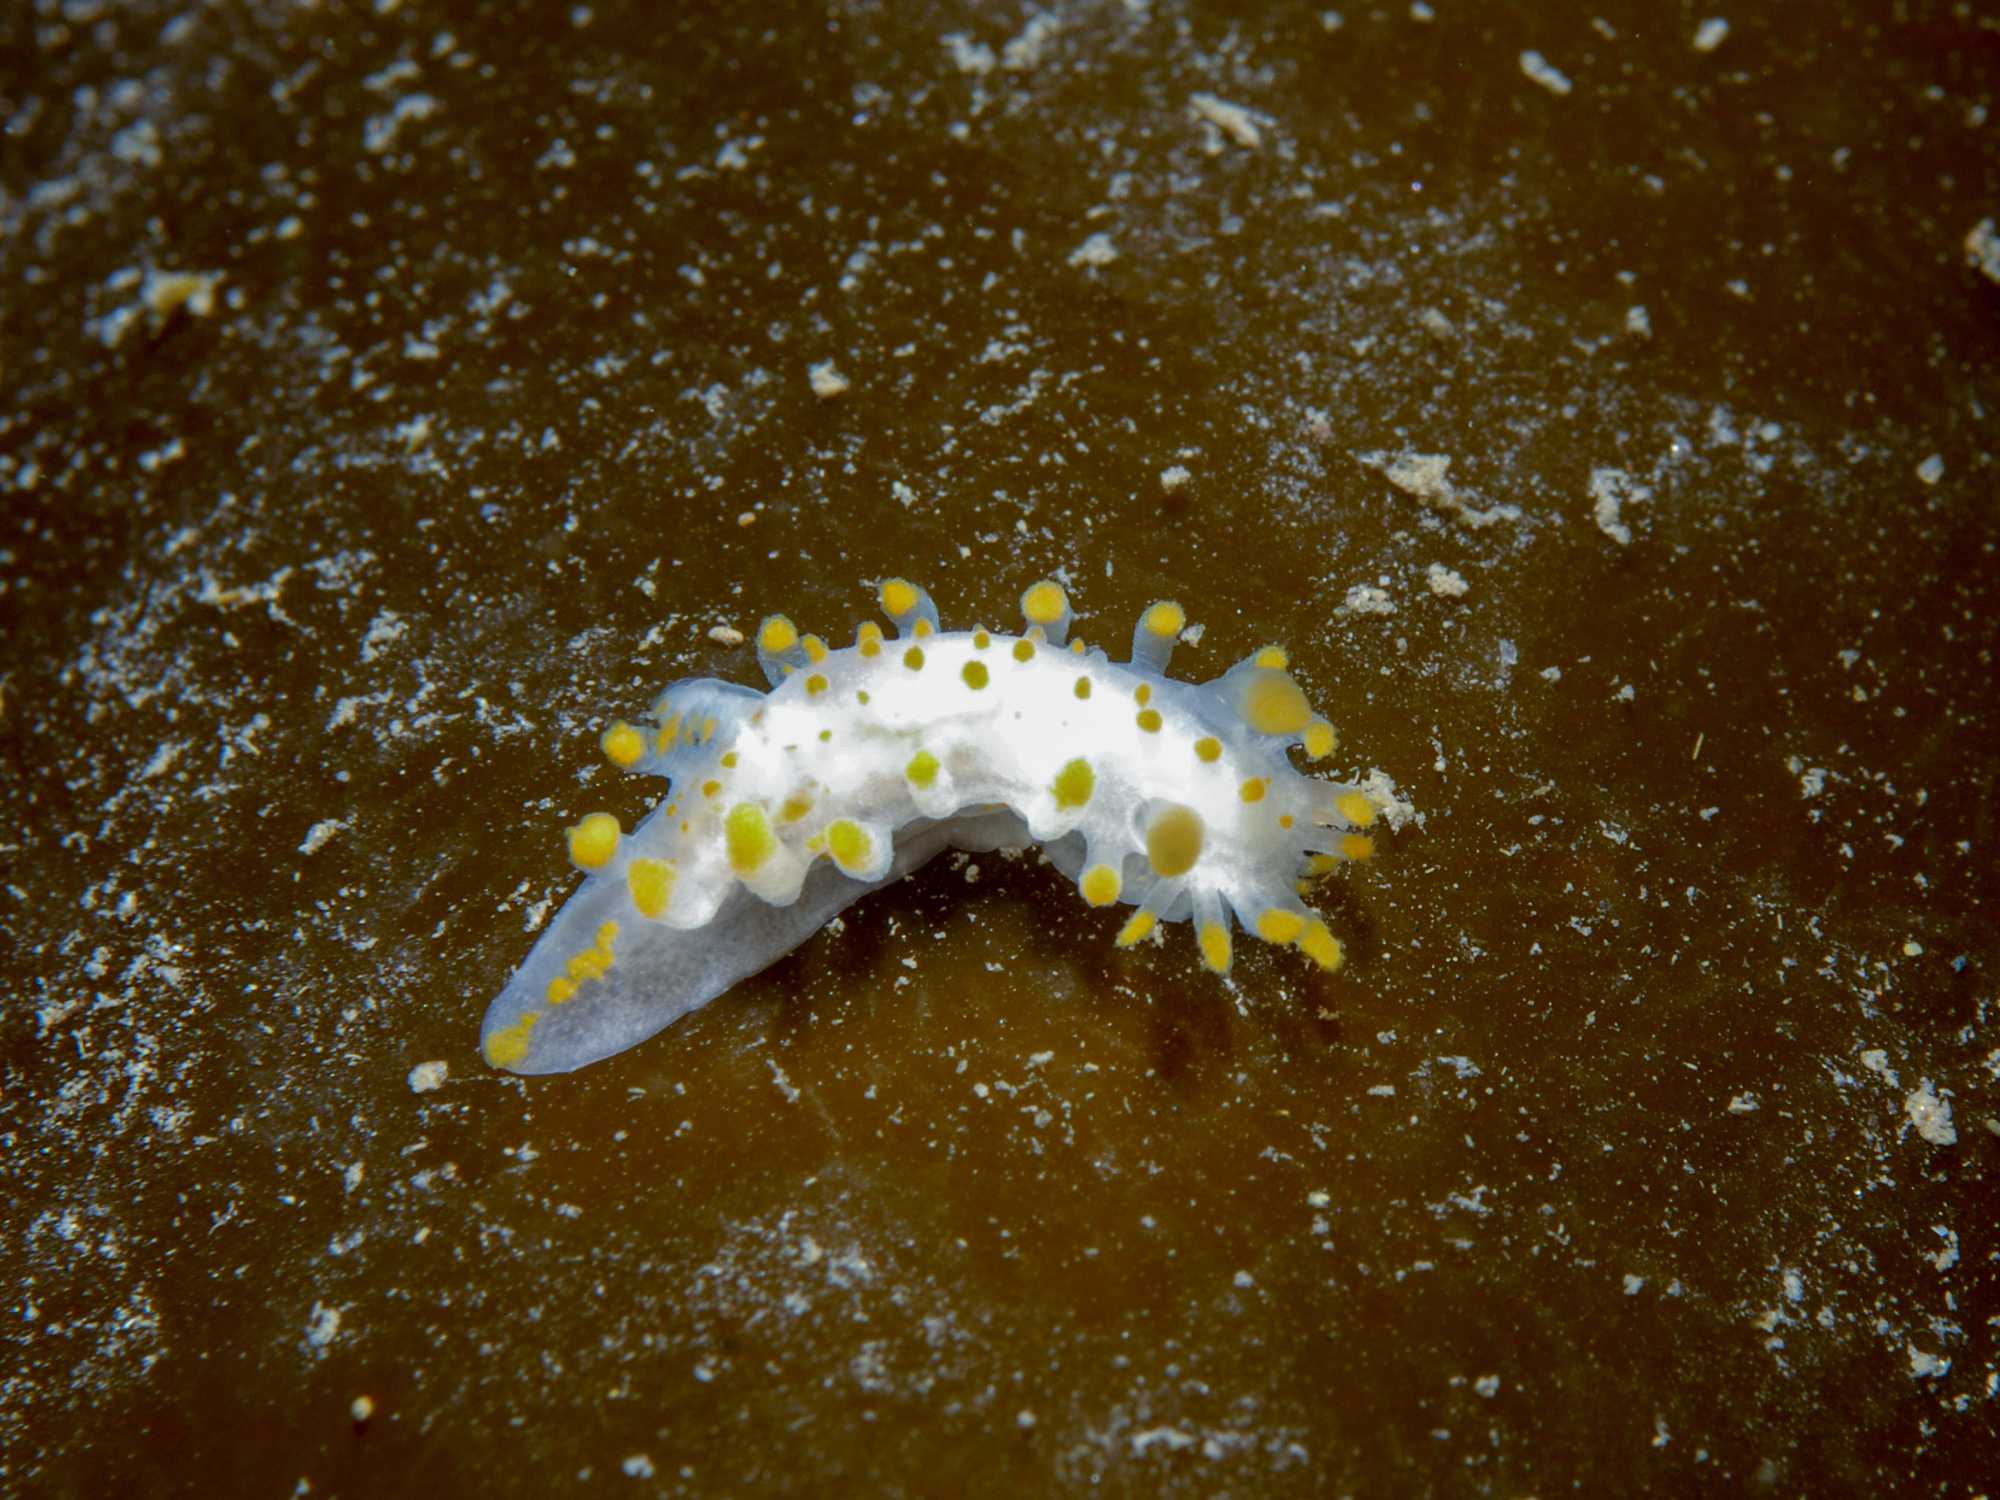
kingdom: Animalia
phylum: Mollusca
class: Gastropoda
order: Nudibranchia
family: Polyceridae
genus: Limacia
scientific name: Limacia clavigera
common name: Orange-clubbed sea slug
